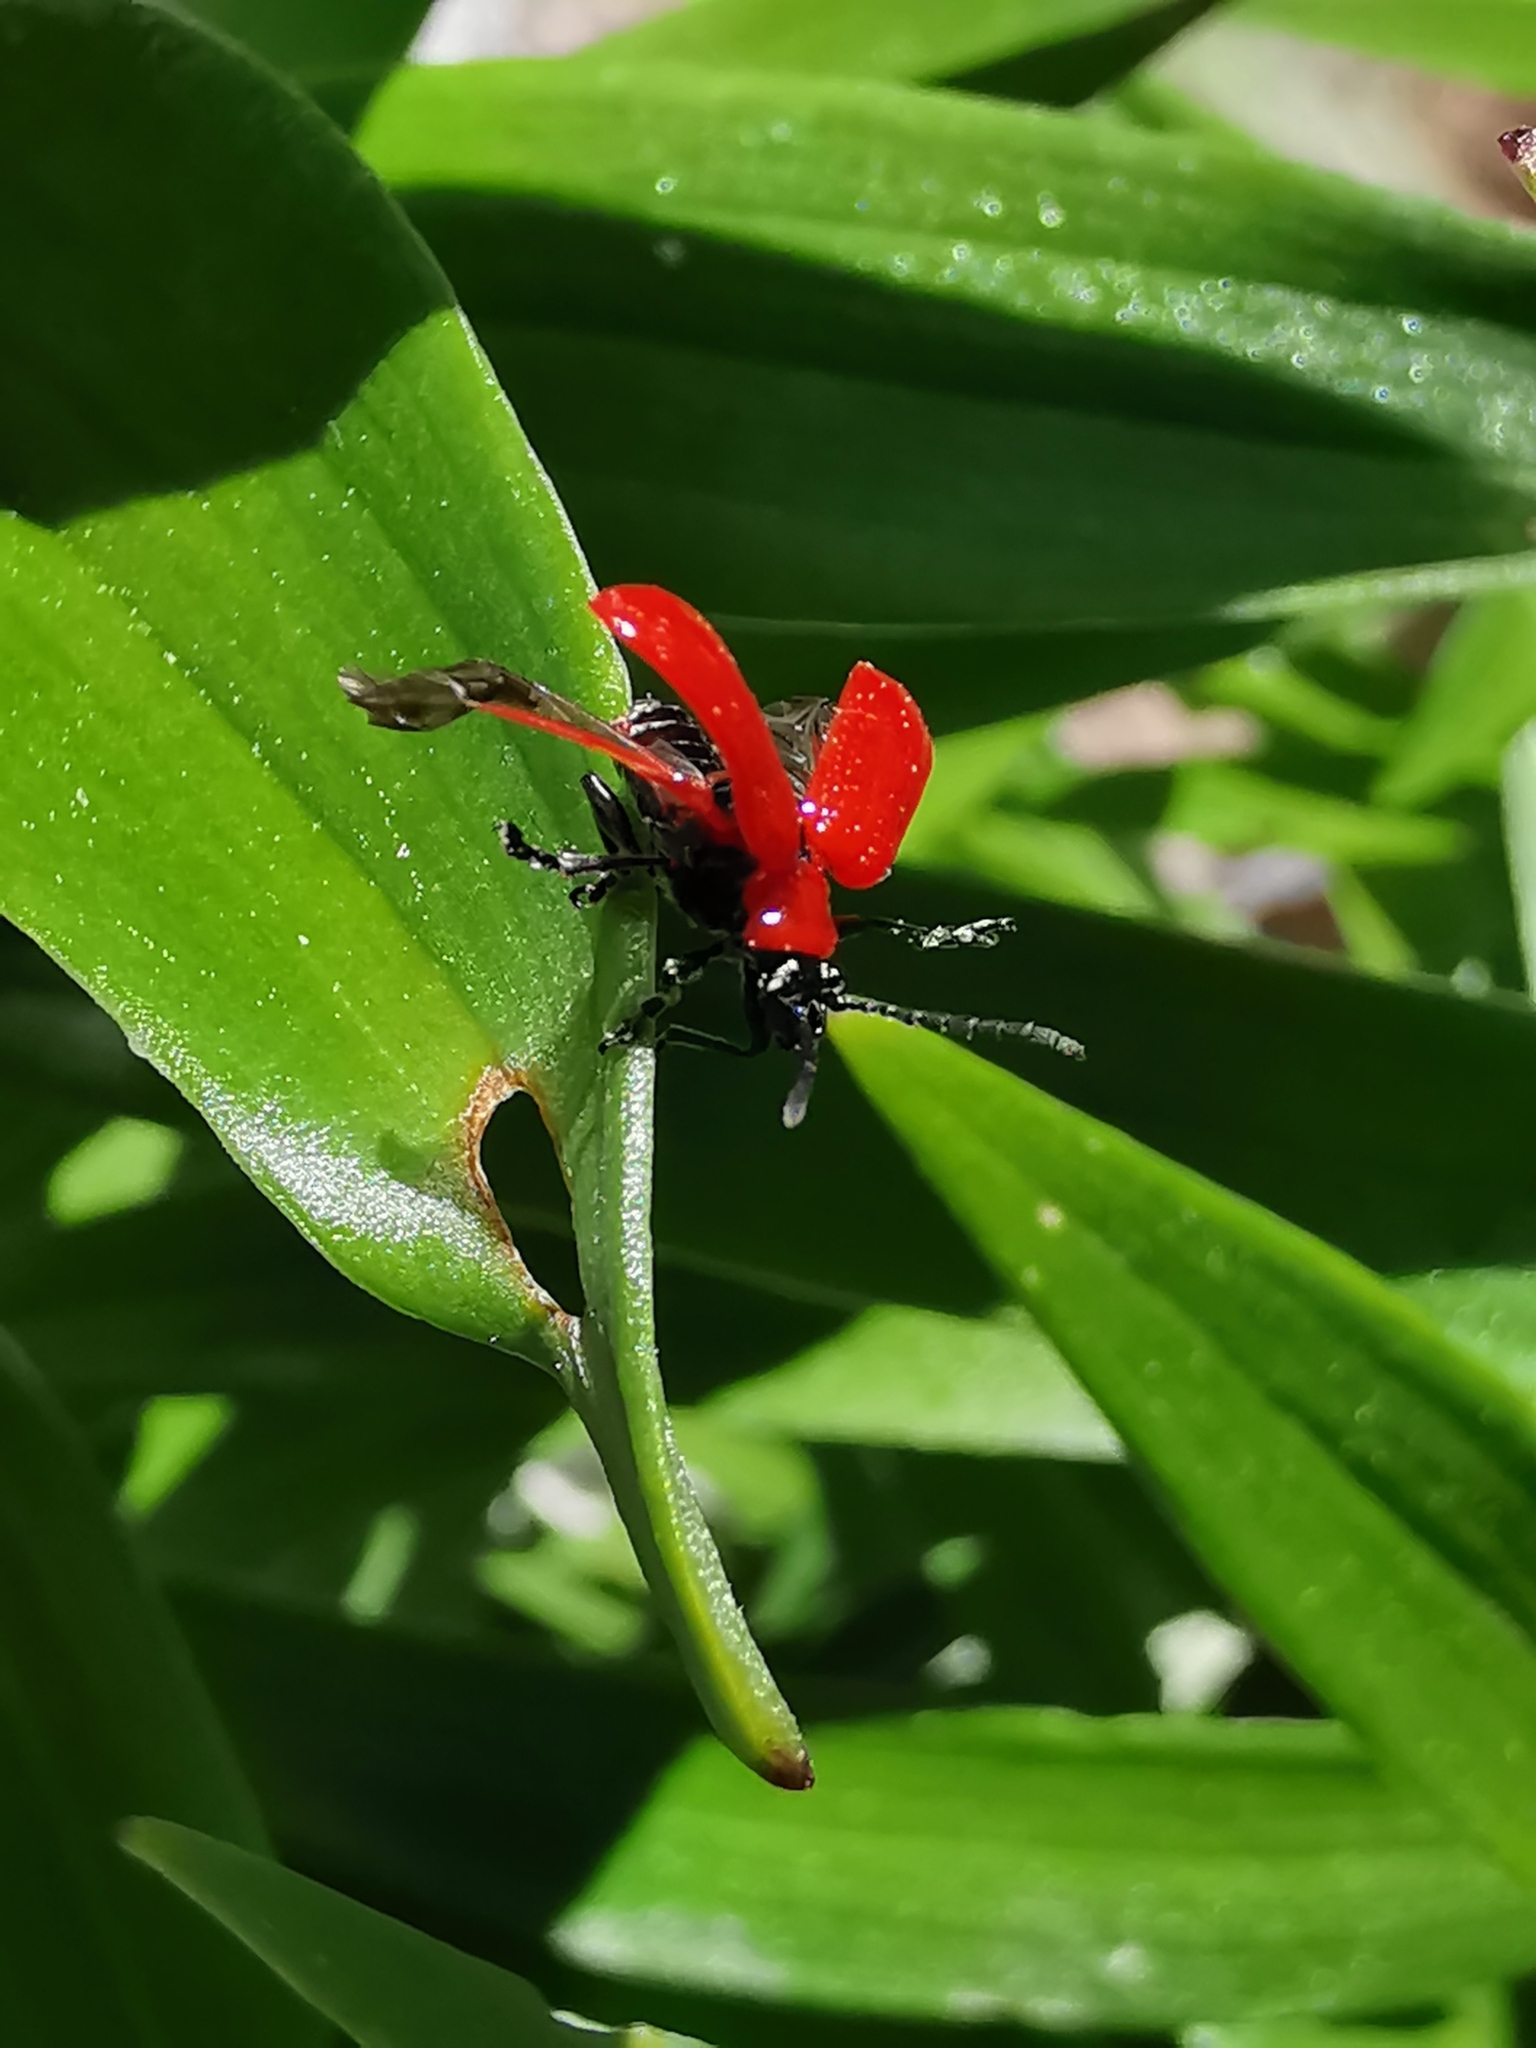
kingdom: Animalia
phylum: Arthropoda
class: Insecta
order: Coleoptera
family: Chrysomelidae
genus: Lilioceris
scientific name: Lilioceris lilii
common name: Lily beetle
